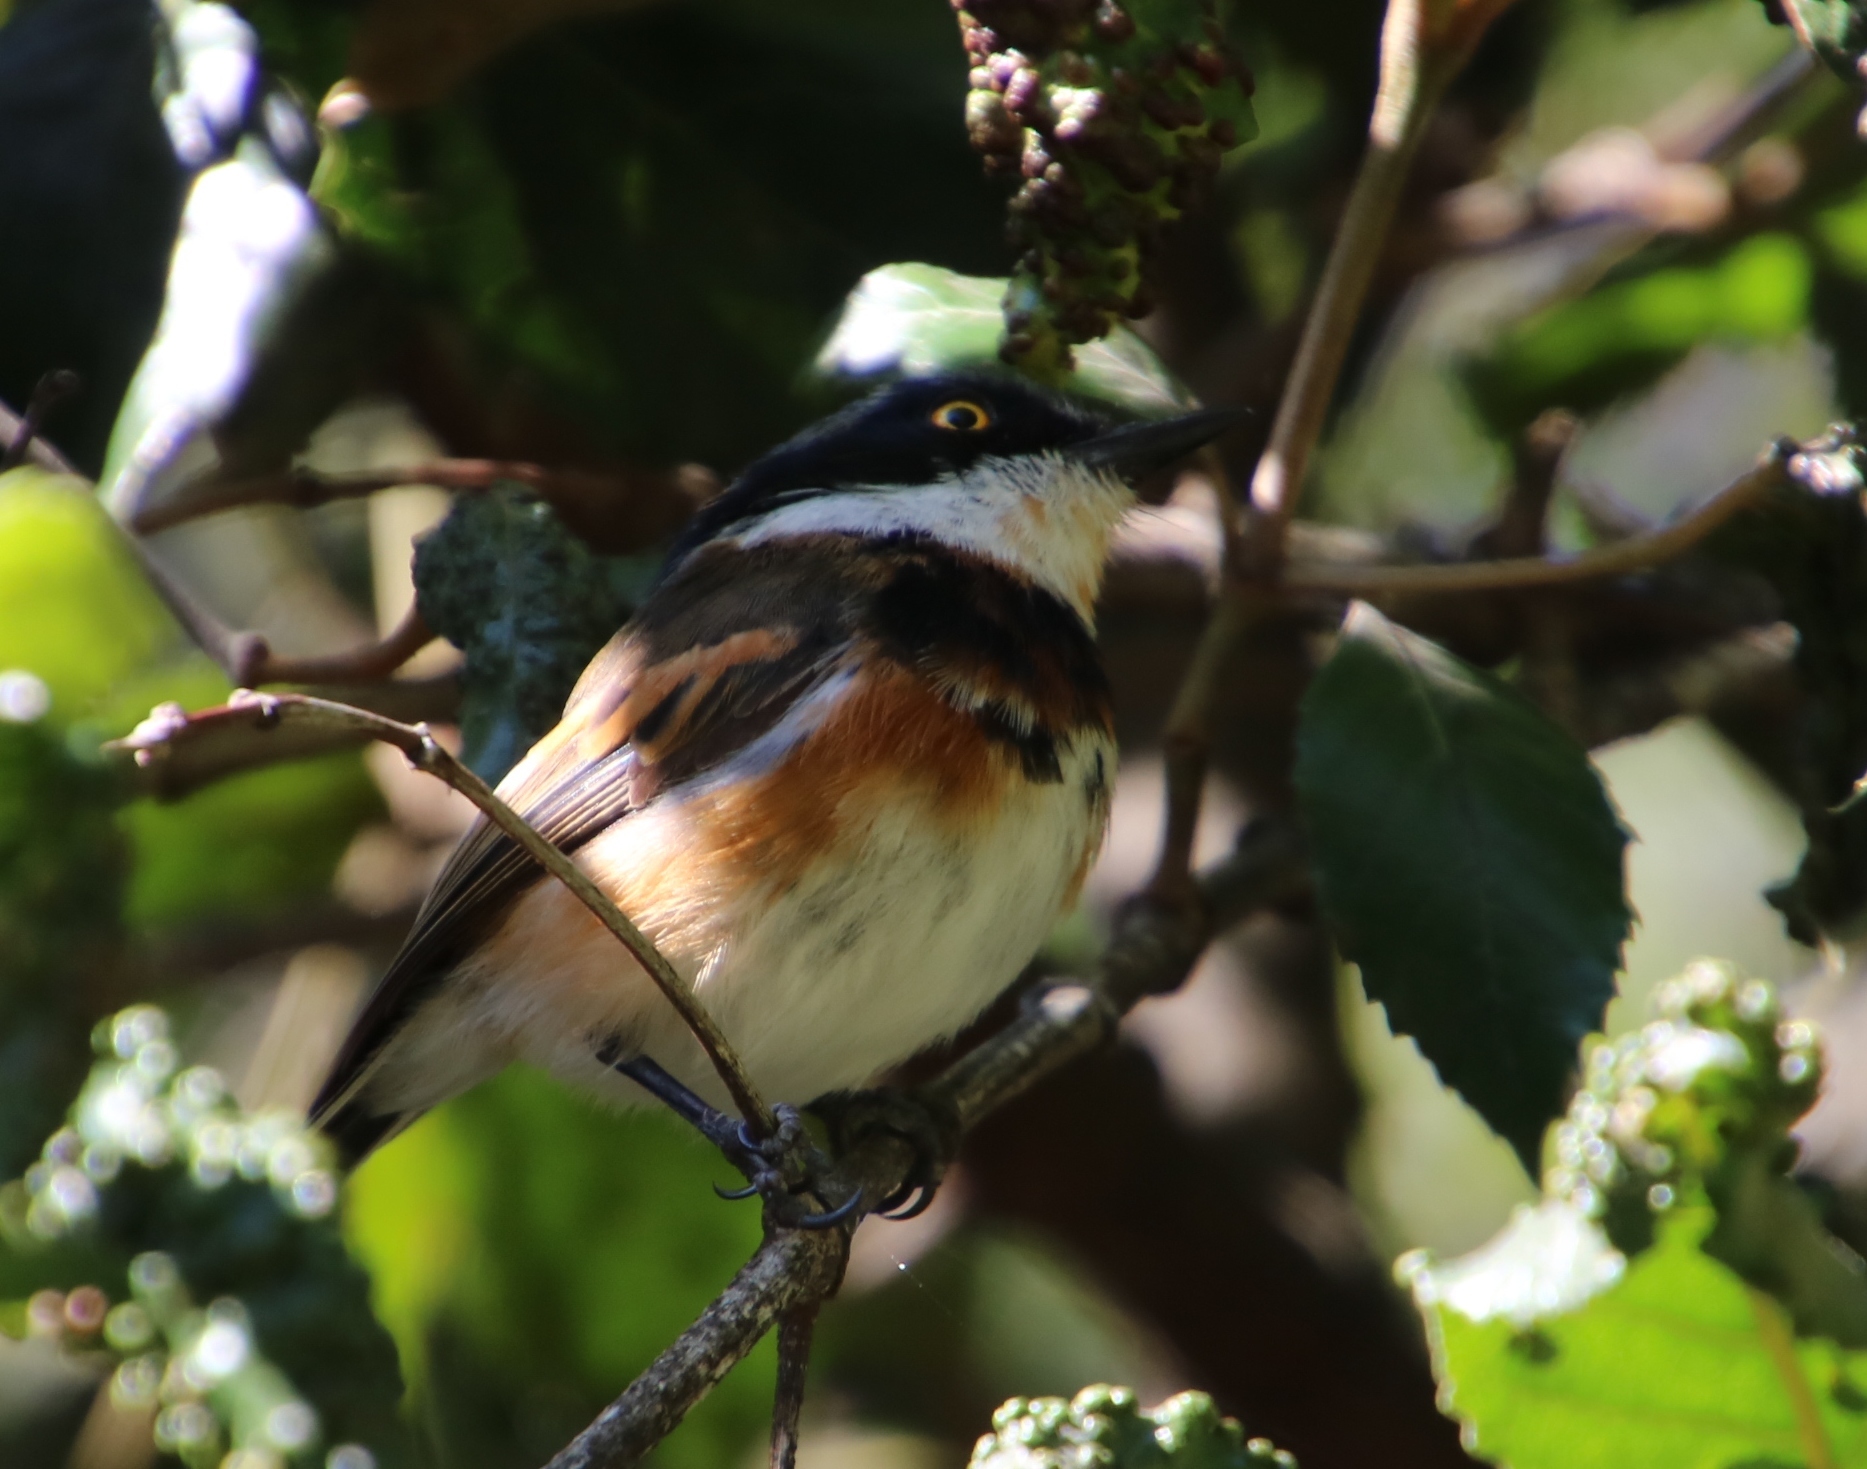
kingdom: Animalia
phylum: Chordata
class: Aves
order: Passeriformes
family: Platysteiridae
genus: Batis
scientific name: Batis capensis
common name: Cape batis
